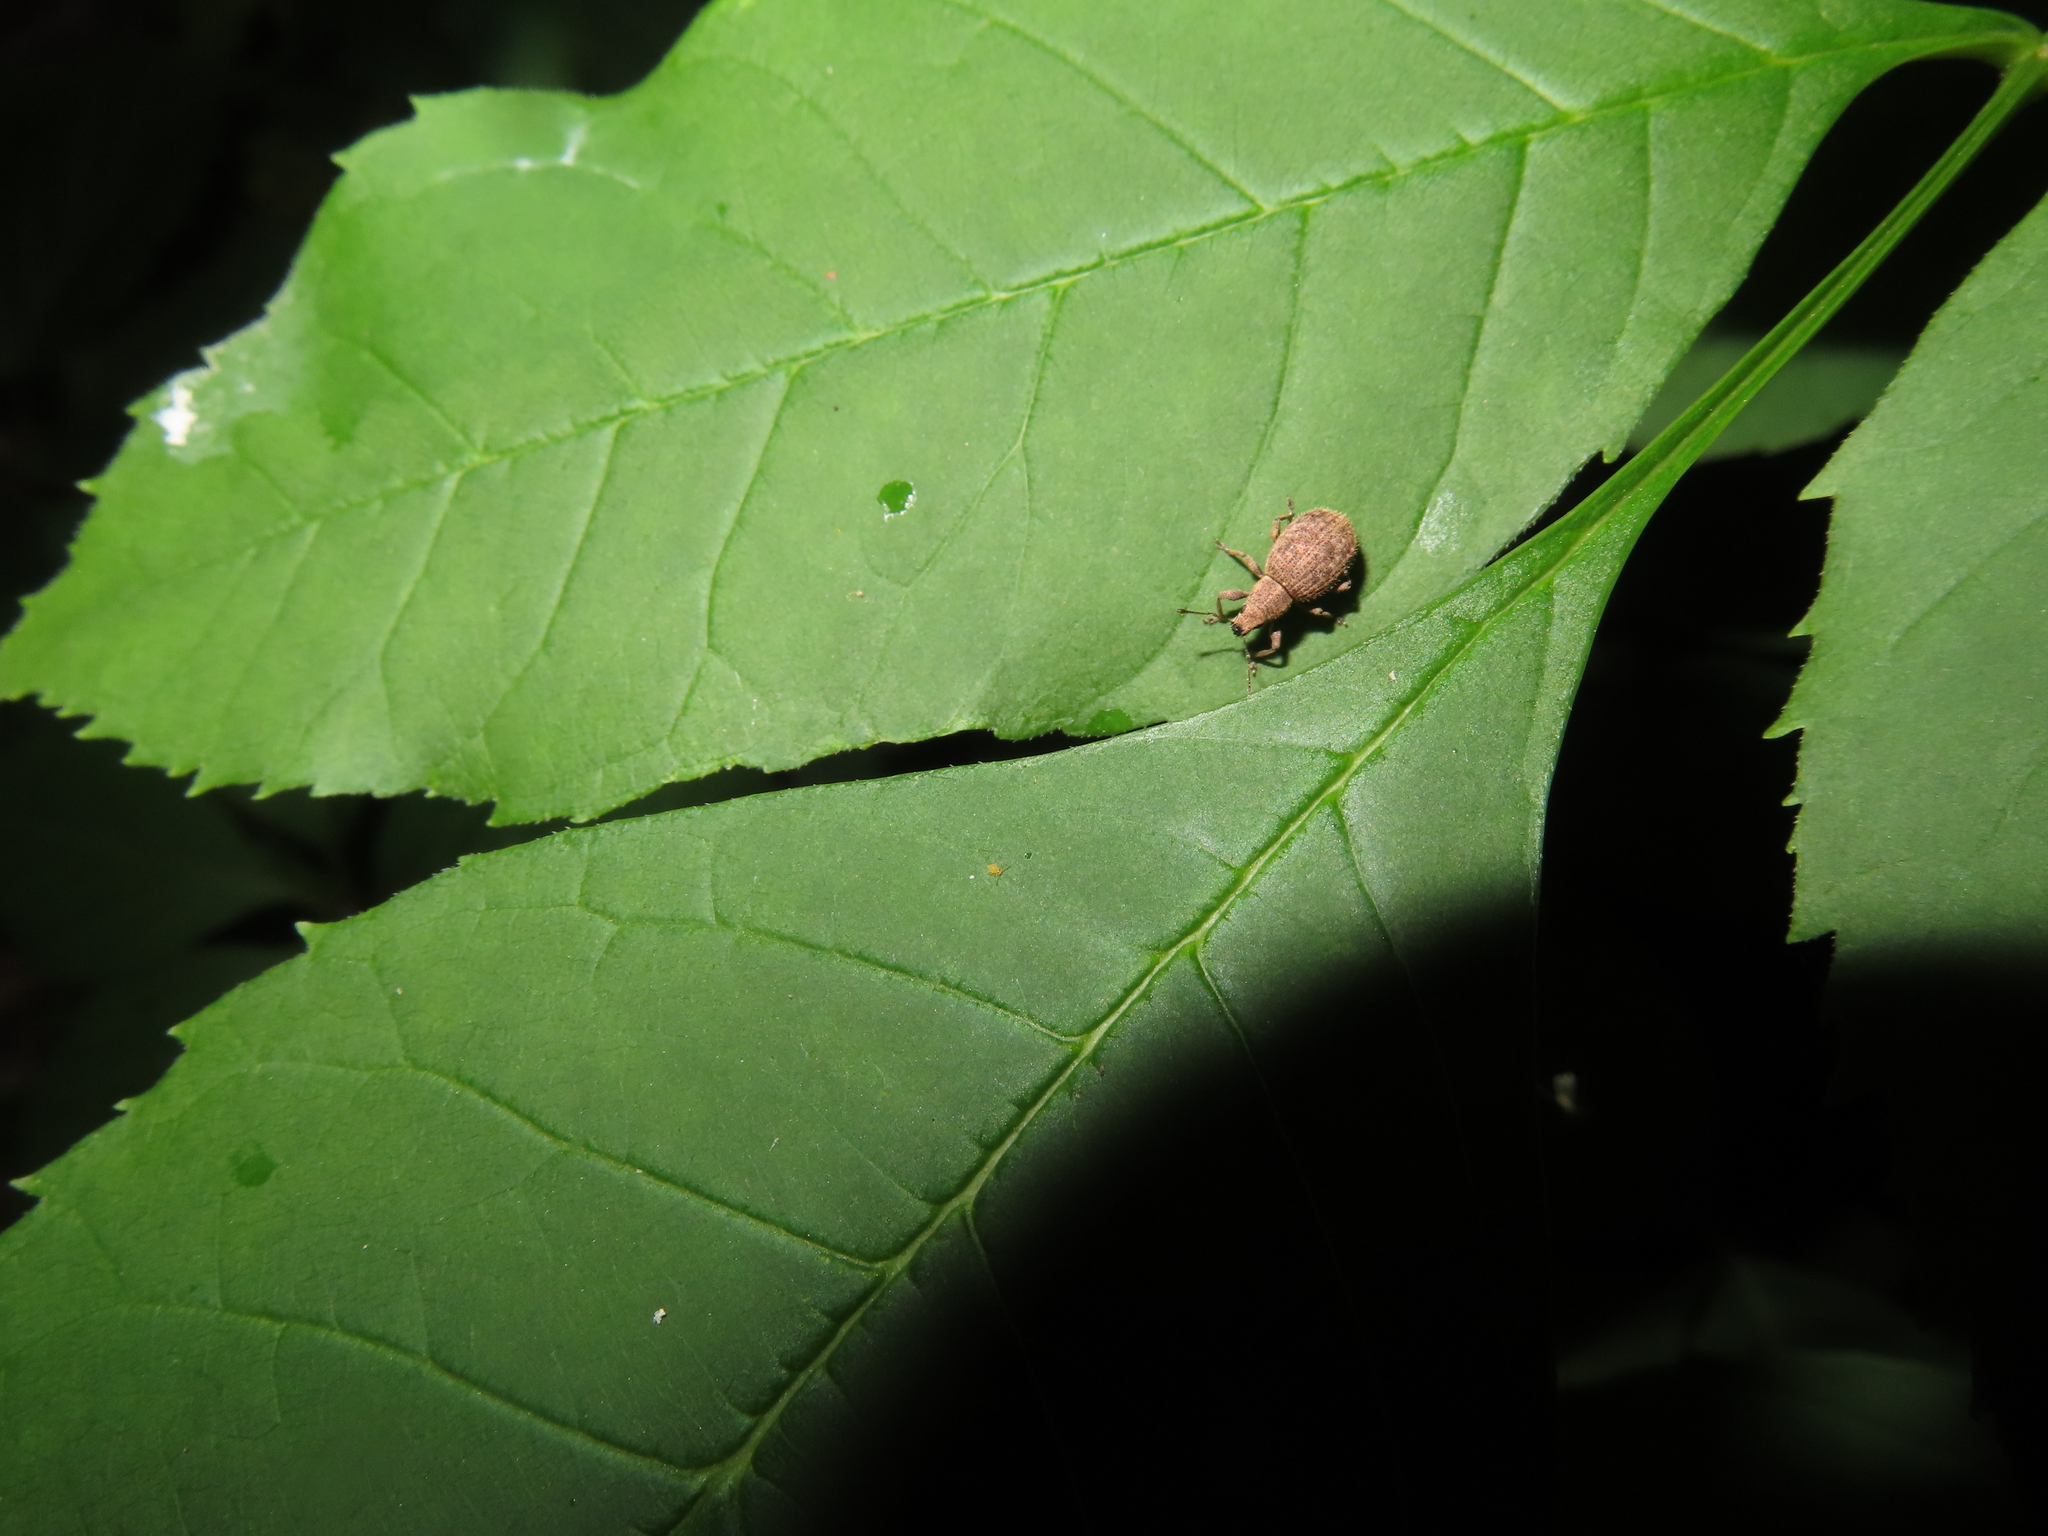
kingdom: Animalia
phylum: Arthropoda
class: Insecta
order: Coleoptera
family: Curculionidae
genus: Sciaphilus
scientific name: Sciaphilus asperatus
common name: Weevil
